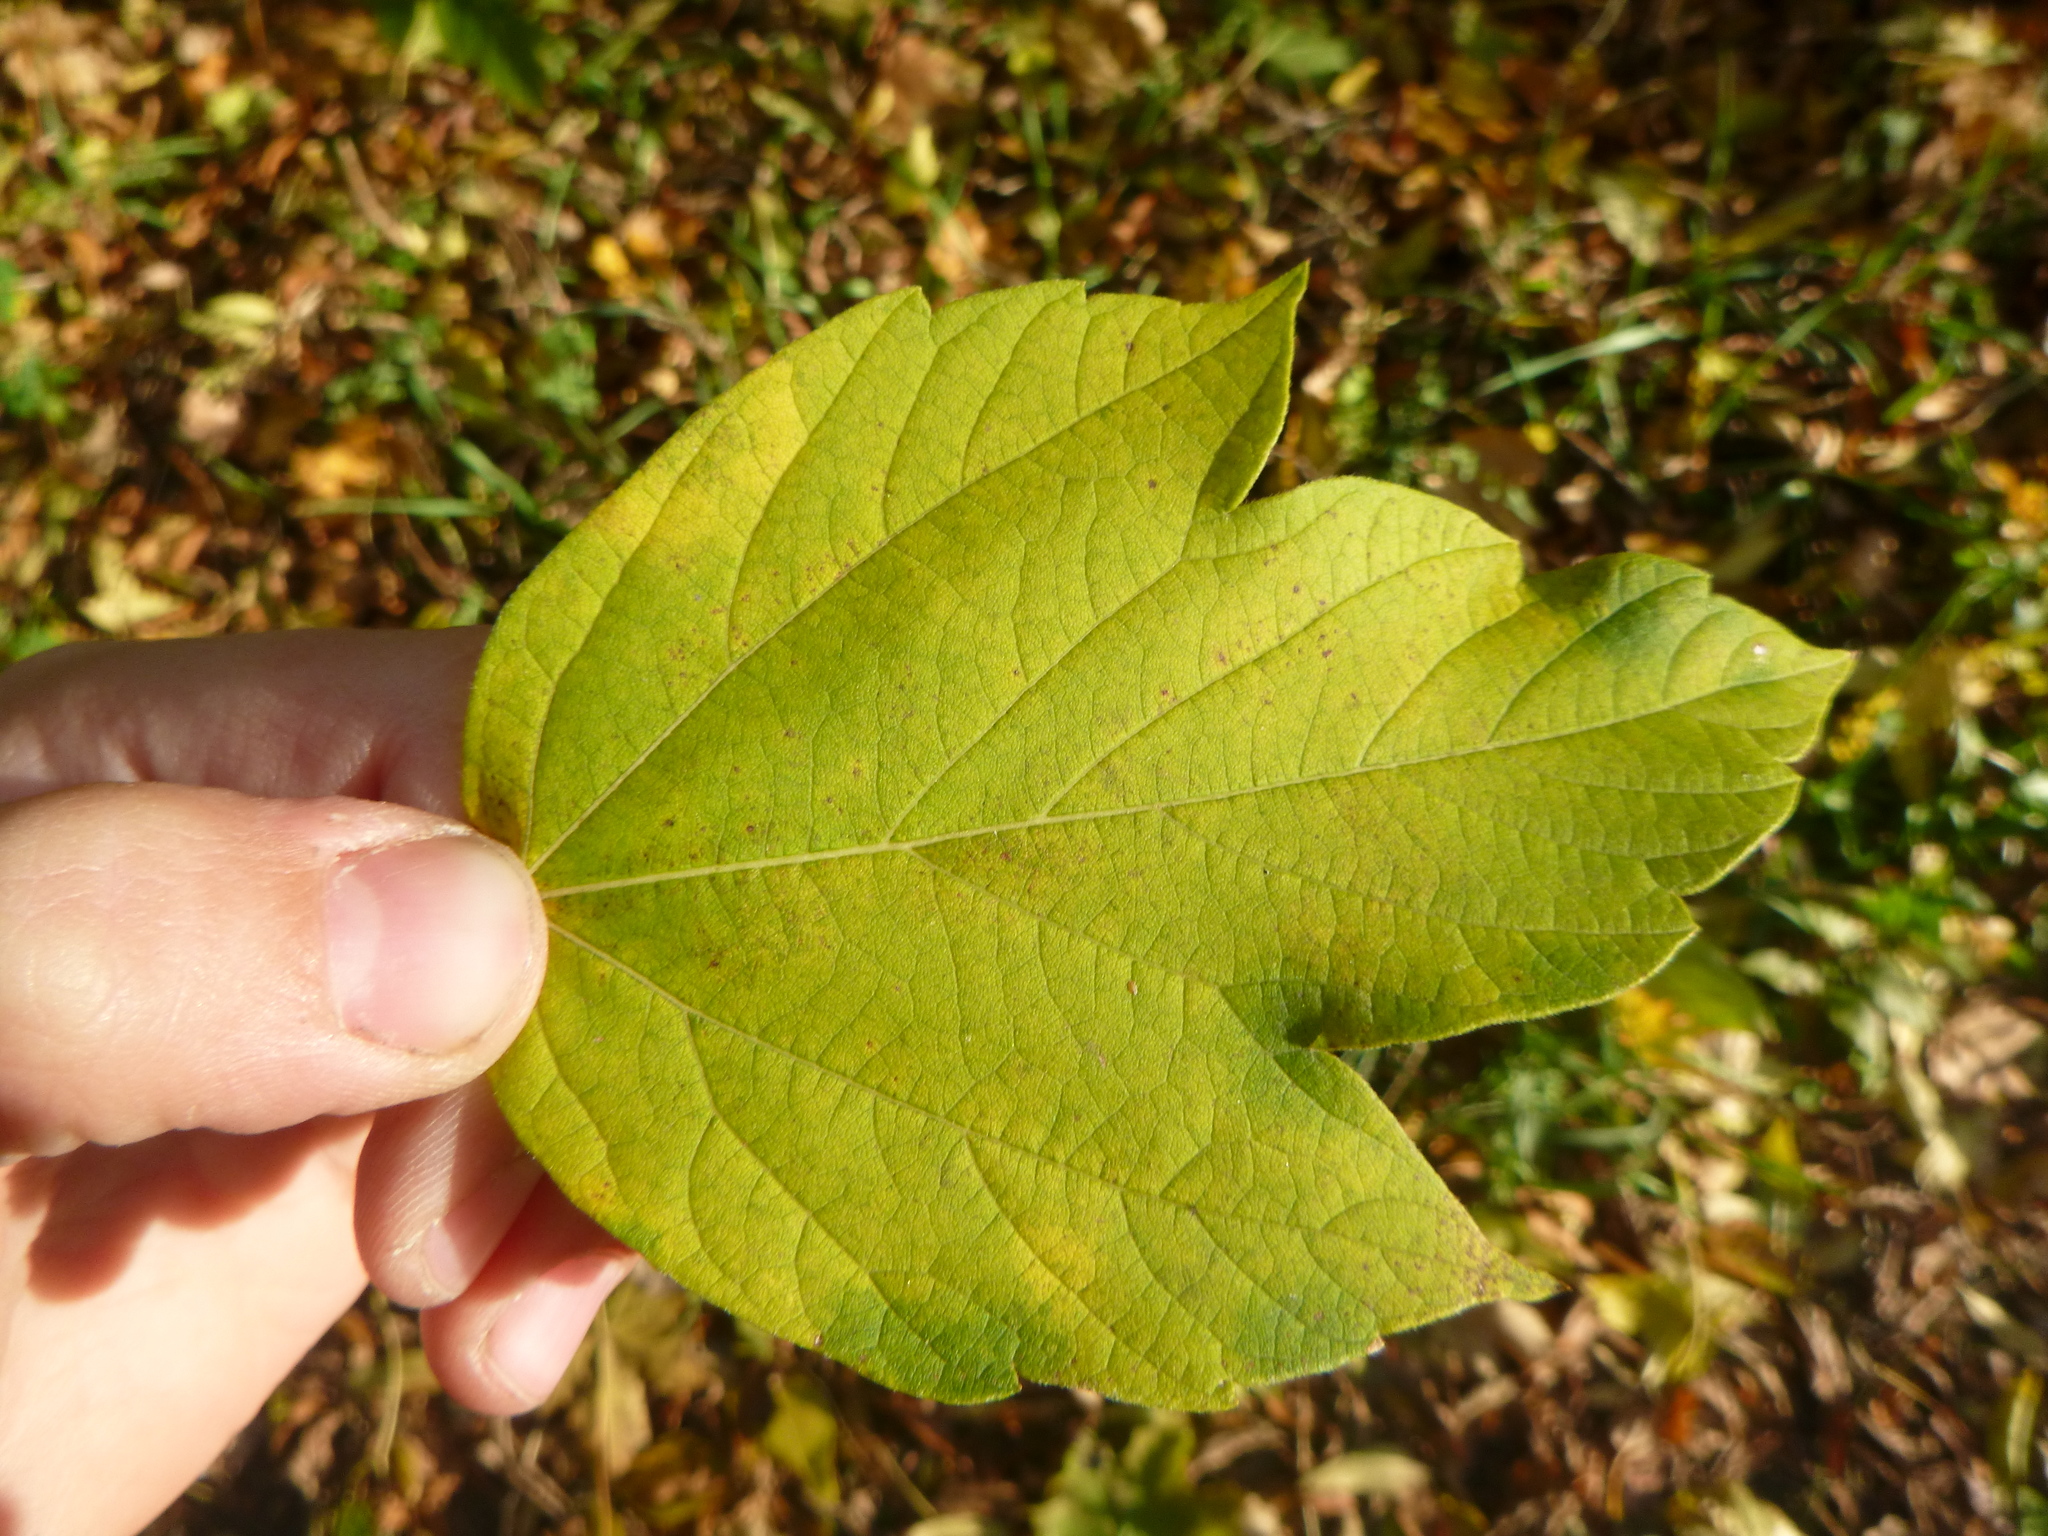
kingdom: Plantae
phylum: Tracheophyta
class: Magnoliopsida
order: Sapindales
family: Sapindaceae
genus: Acer
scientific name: Acer negundo
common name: Ashleaf maple
